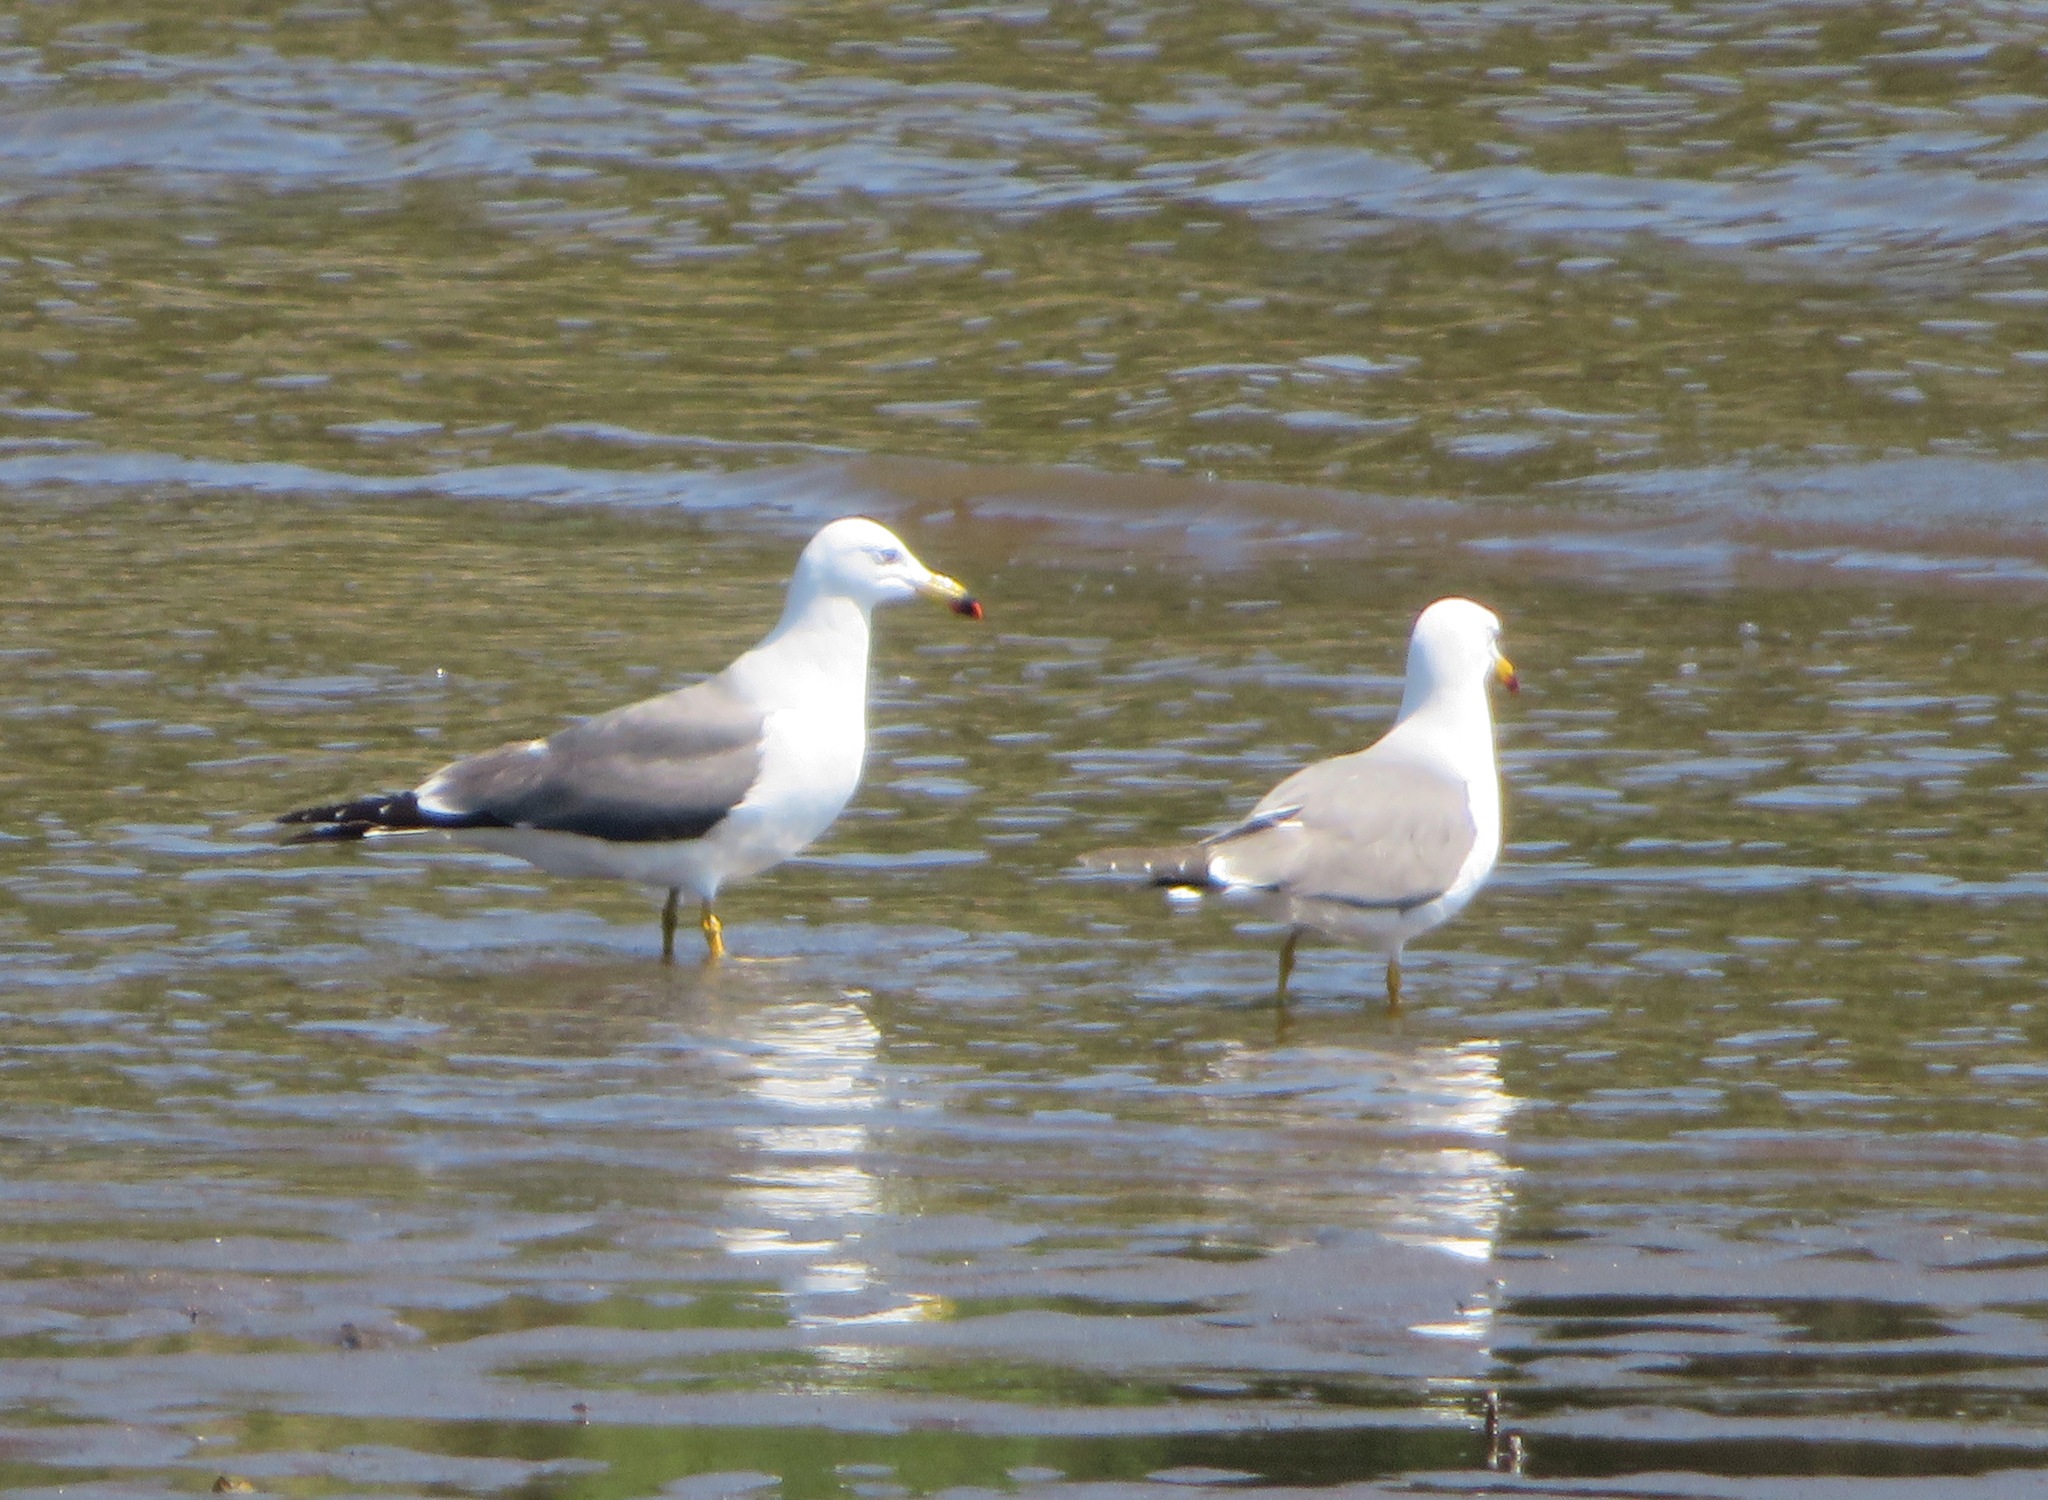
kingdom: Animalia
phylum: Chordata
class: Aves
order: Charadriiformes
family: Laridae
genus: Larus
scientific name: Larus crassirostris
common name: Black-tailed gull
